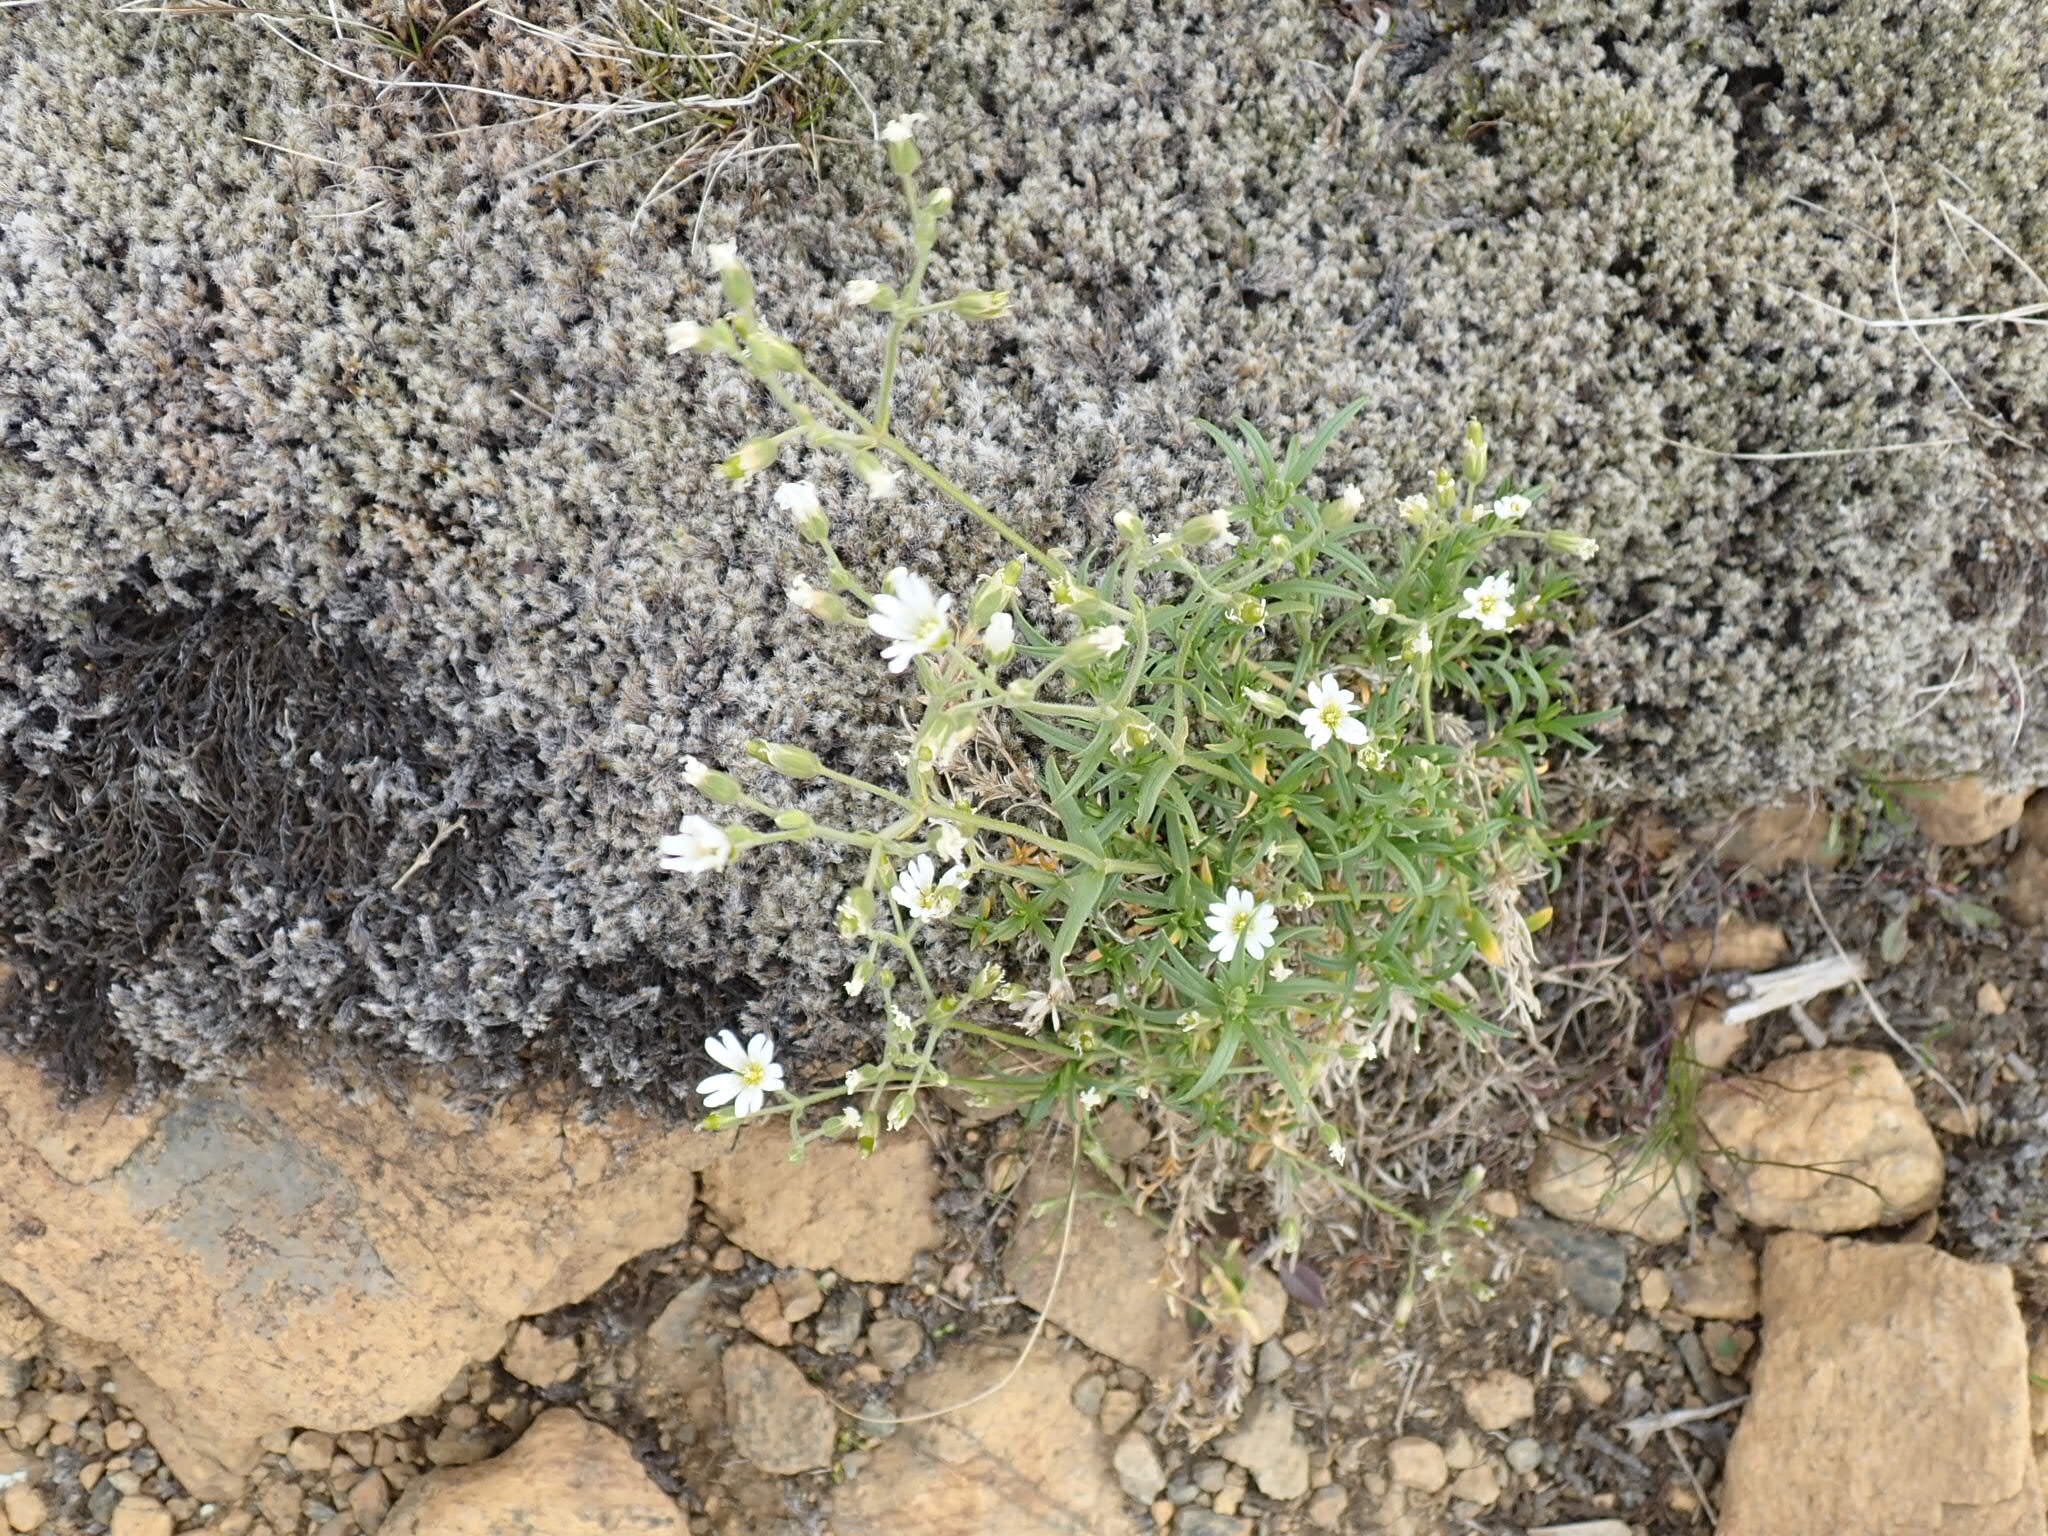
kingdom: Plantae
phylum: Tracheophyta
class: Magnoliopsida
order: Caryophyllales
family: Caryophyllaceae
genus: Cerastium
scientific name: Cerastium arvense
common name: Field mouse-ear
